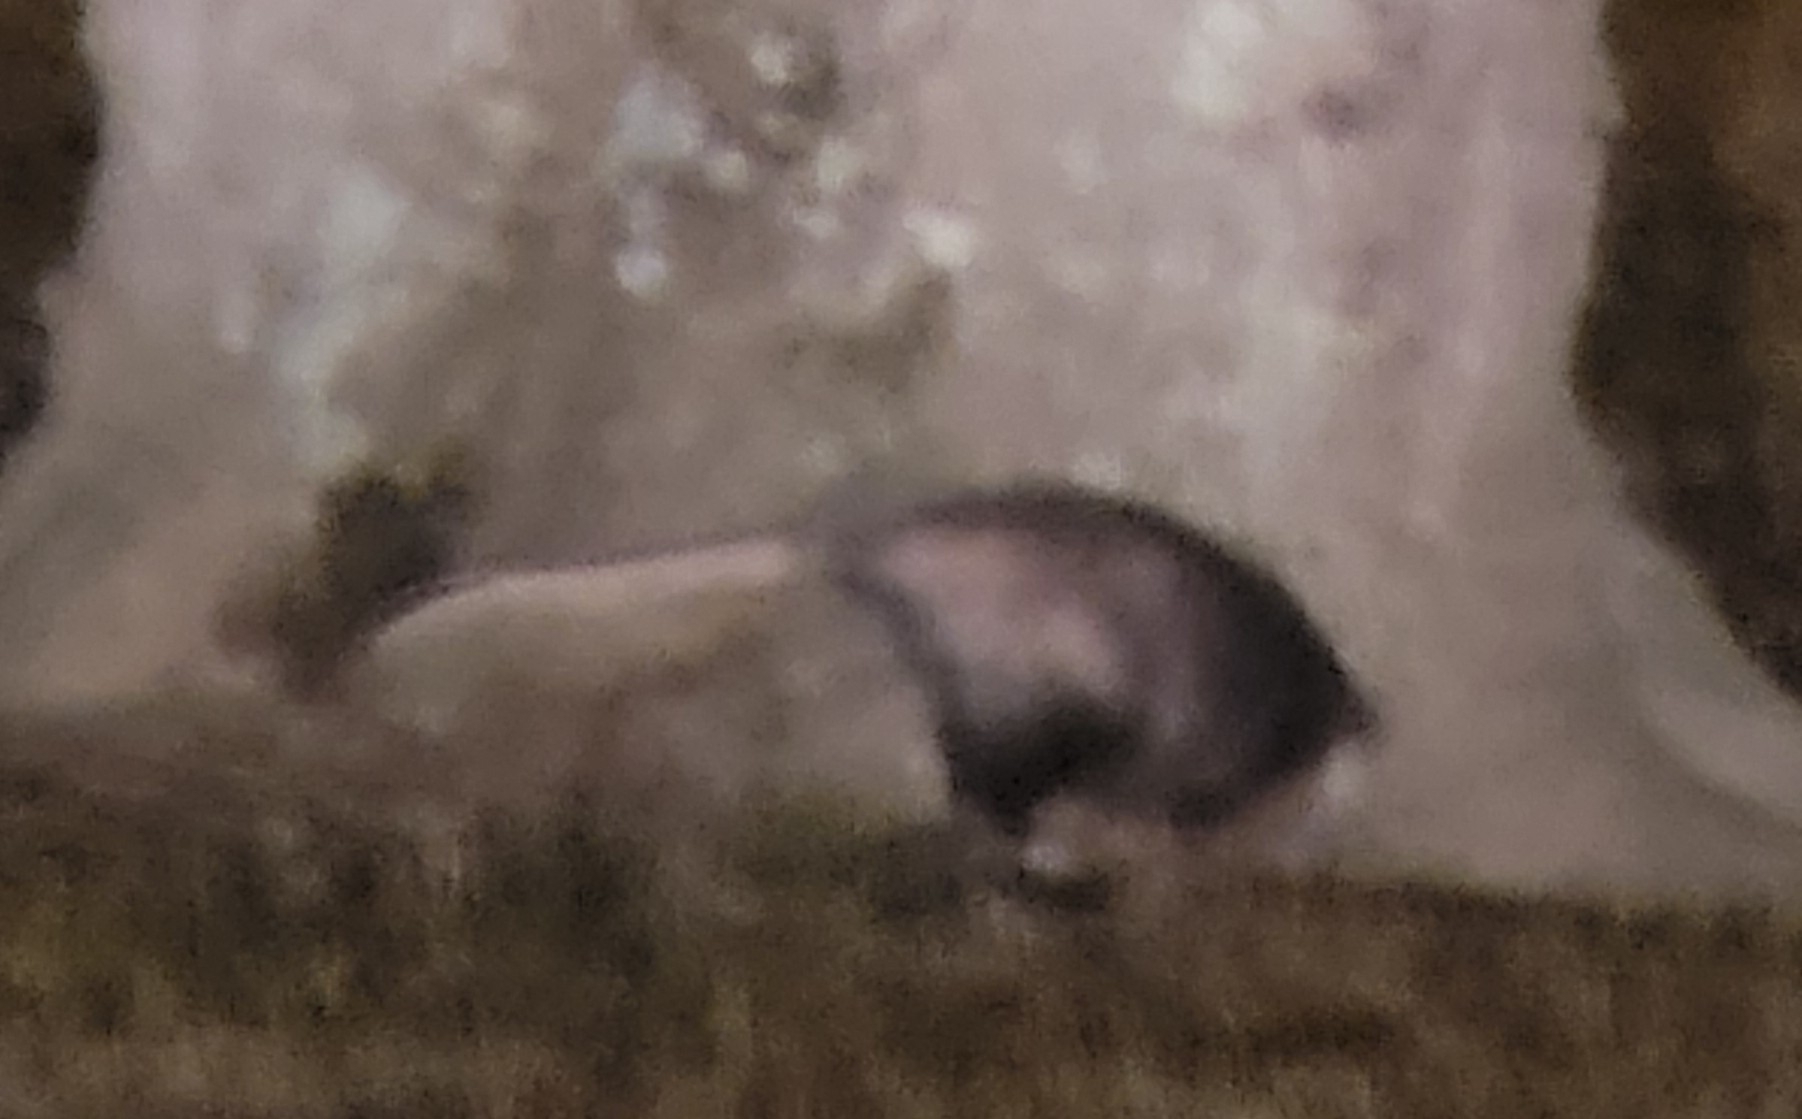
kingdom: Animalia
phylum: Chordata
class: Mammalia
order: Didelphimorphia
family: Didelphidae
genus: Didelphis
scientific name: Didelphis virginiana
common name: Virginia opossum
